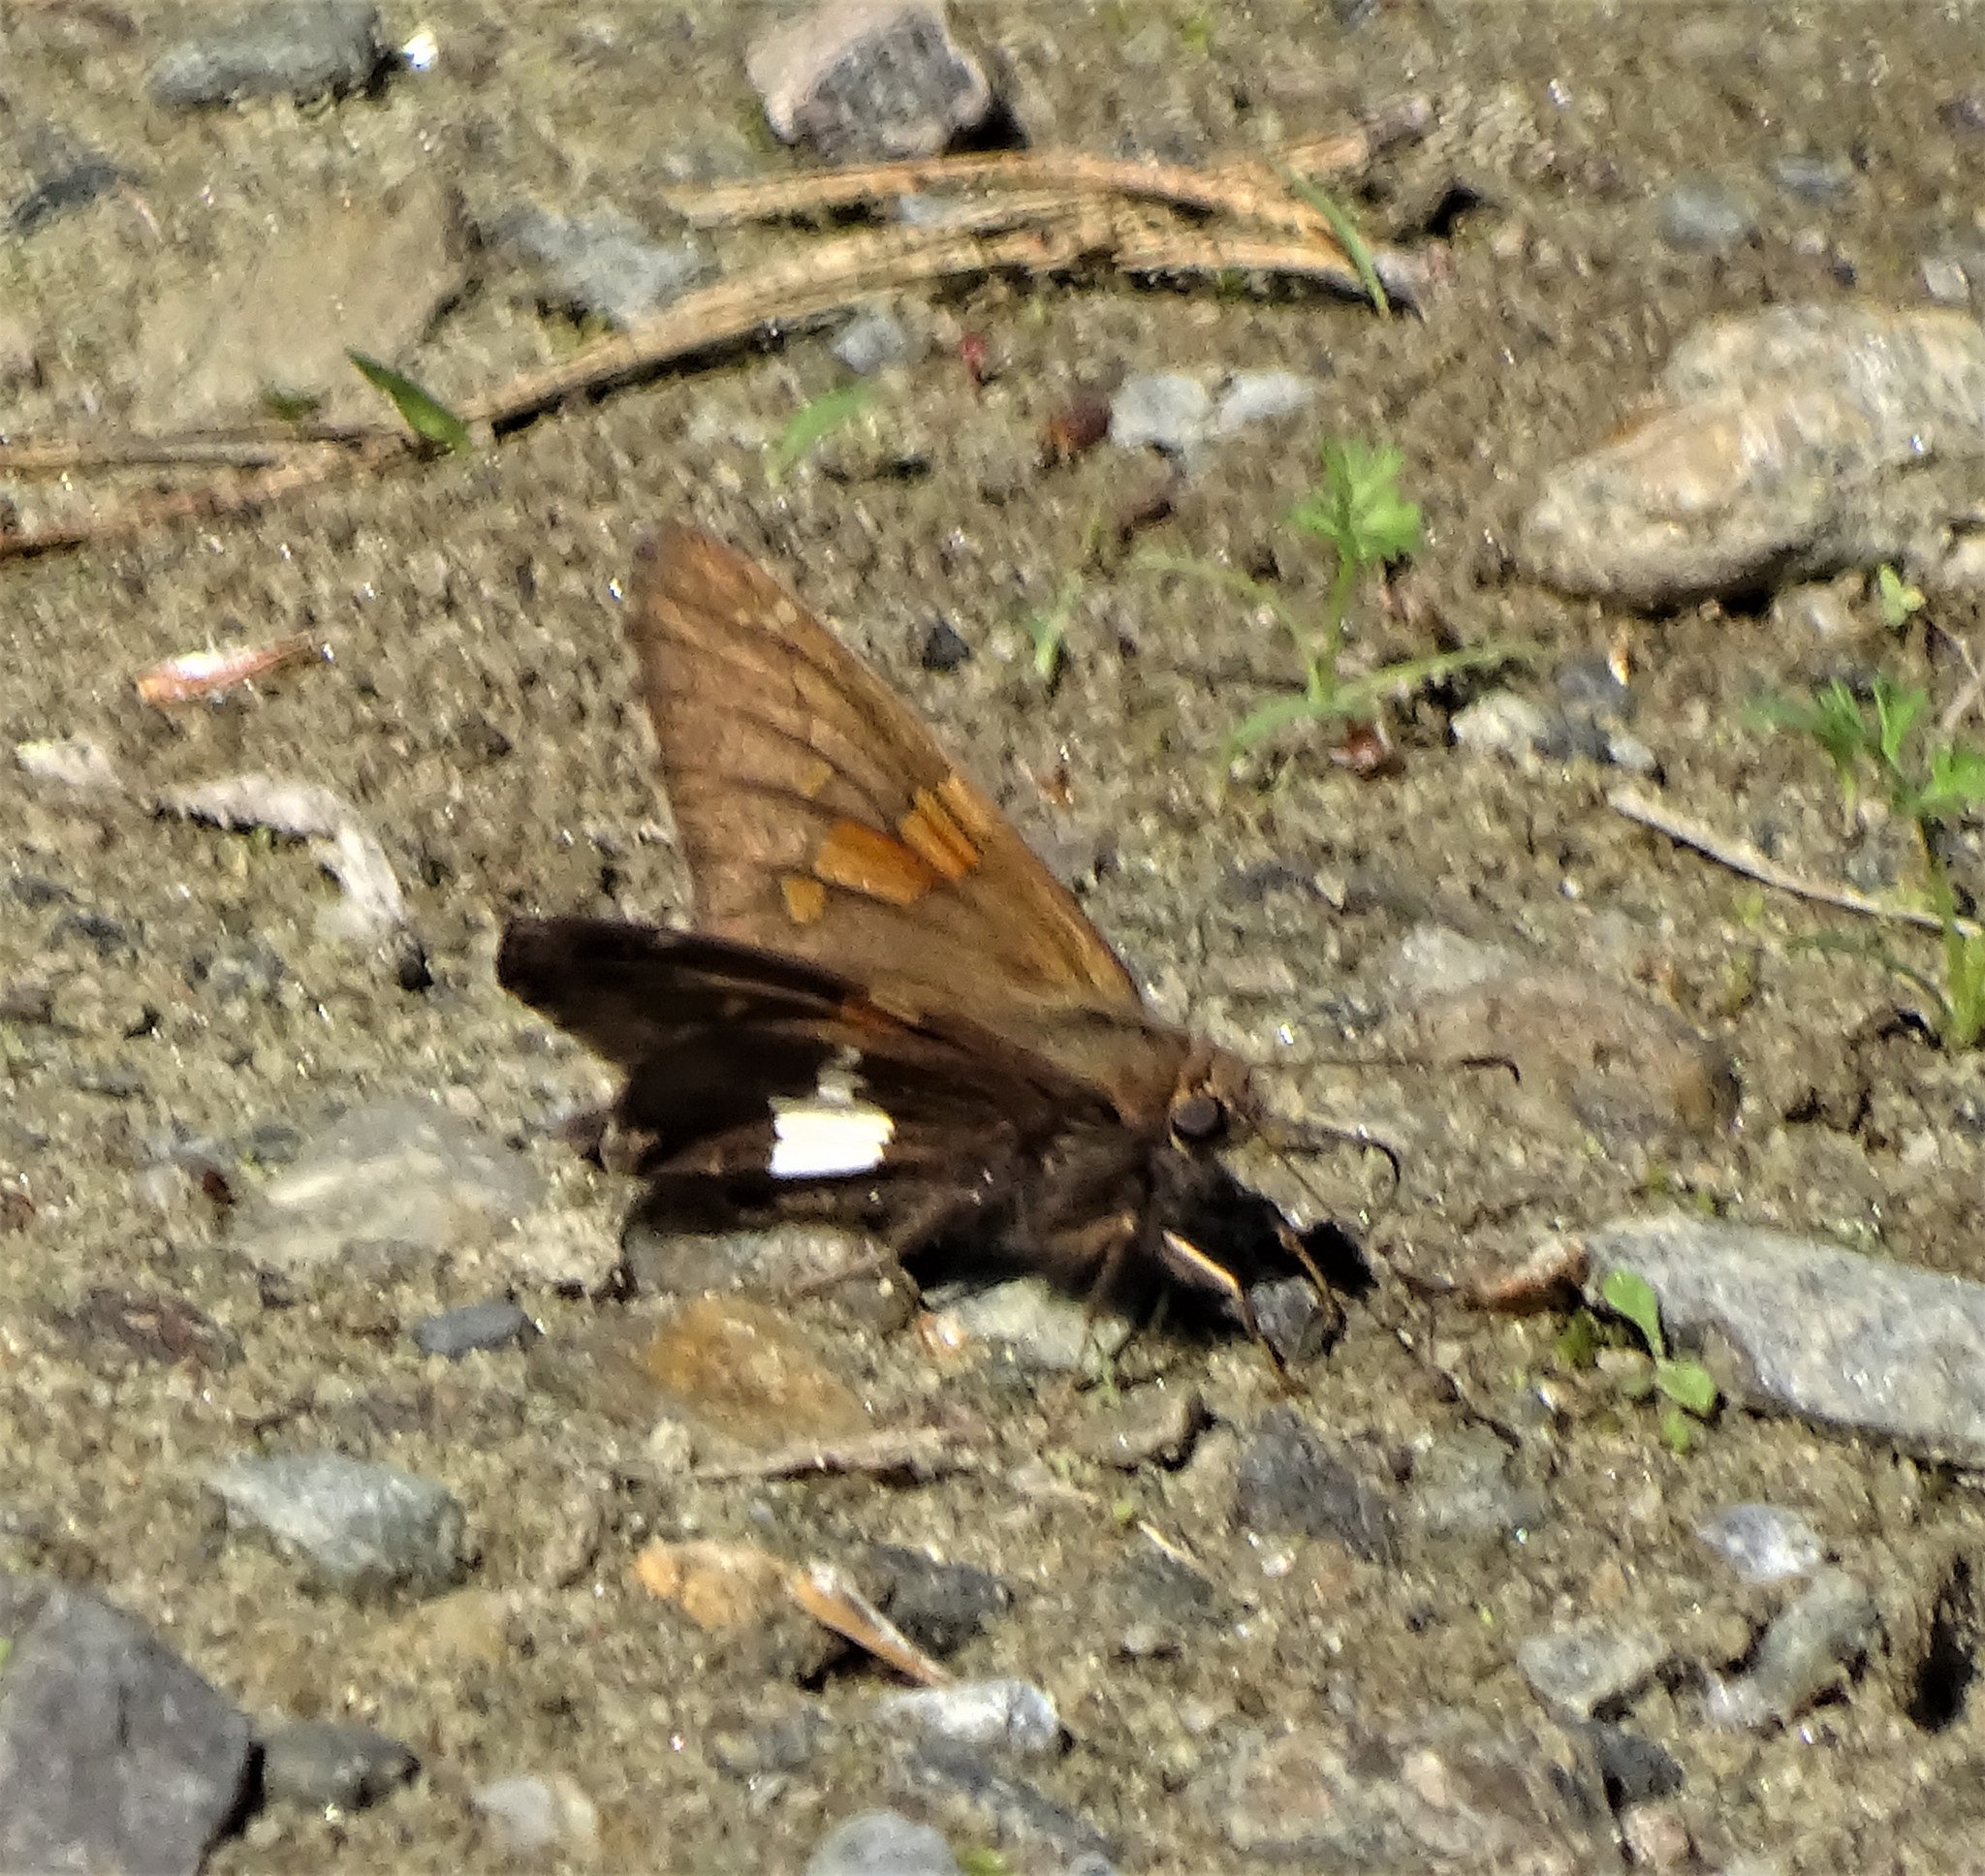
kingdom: Animalia
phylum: Arthropoda
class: Insecta
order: Lepidoptera
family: Hesperiidae
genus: Epargyreus
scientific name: Epargyreus clarus
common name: Silver-spotted skipper
